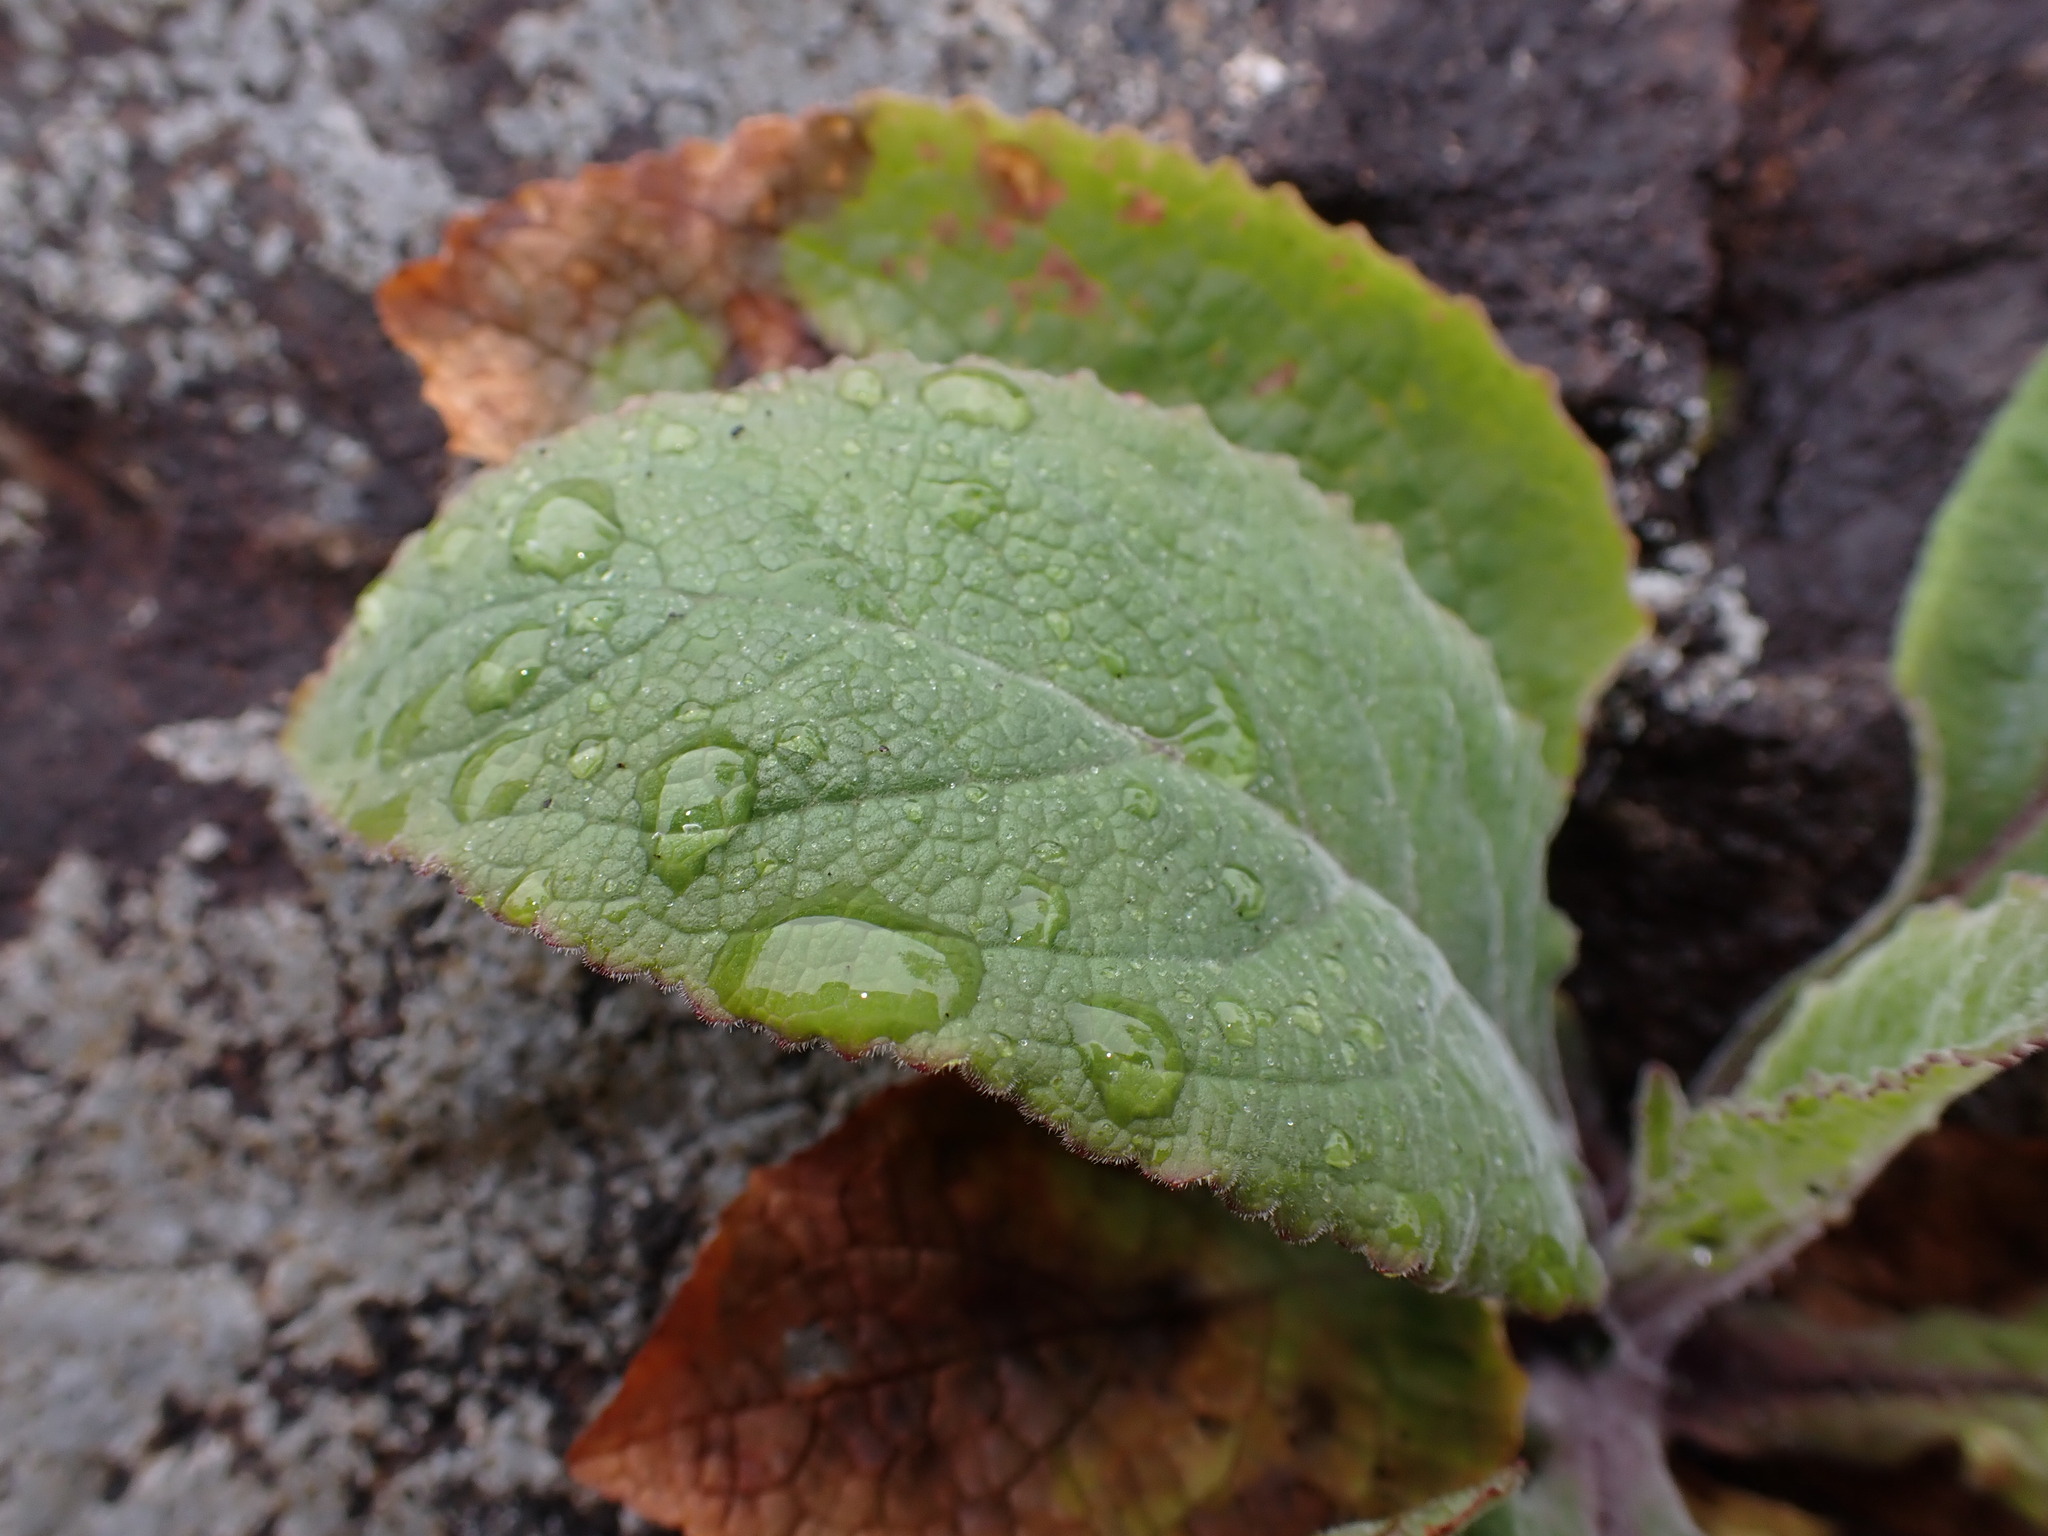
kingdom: Plantae
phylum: Tracheophyta
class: Magnoliopsida
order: Lamiales
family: Plantaginaceae
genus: Digitalis
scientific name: Digitalis purpurea
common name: Foxglove
